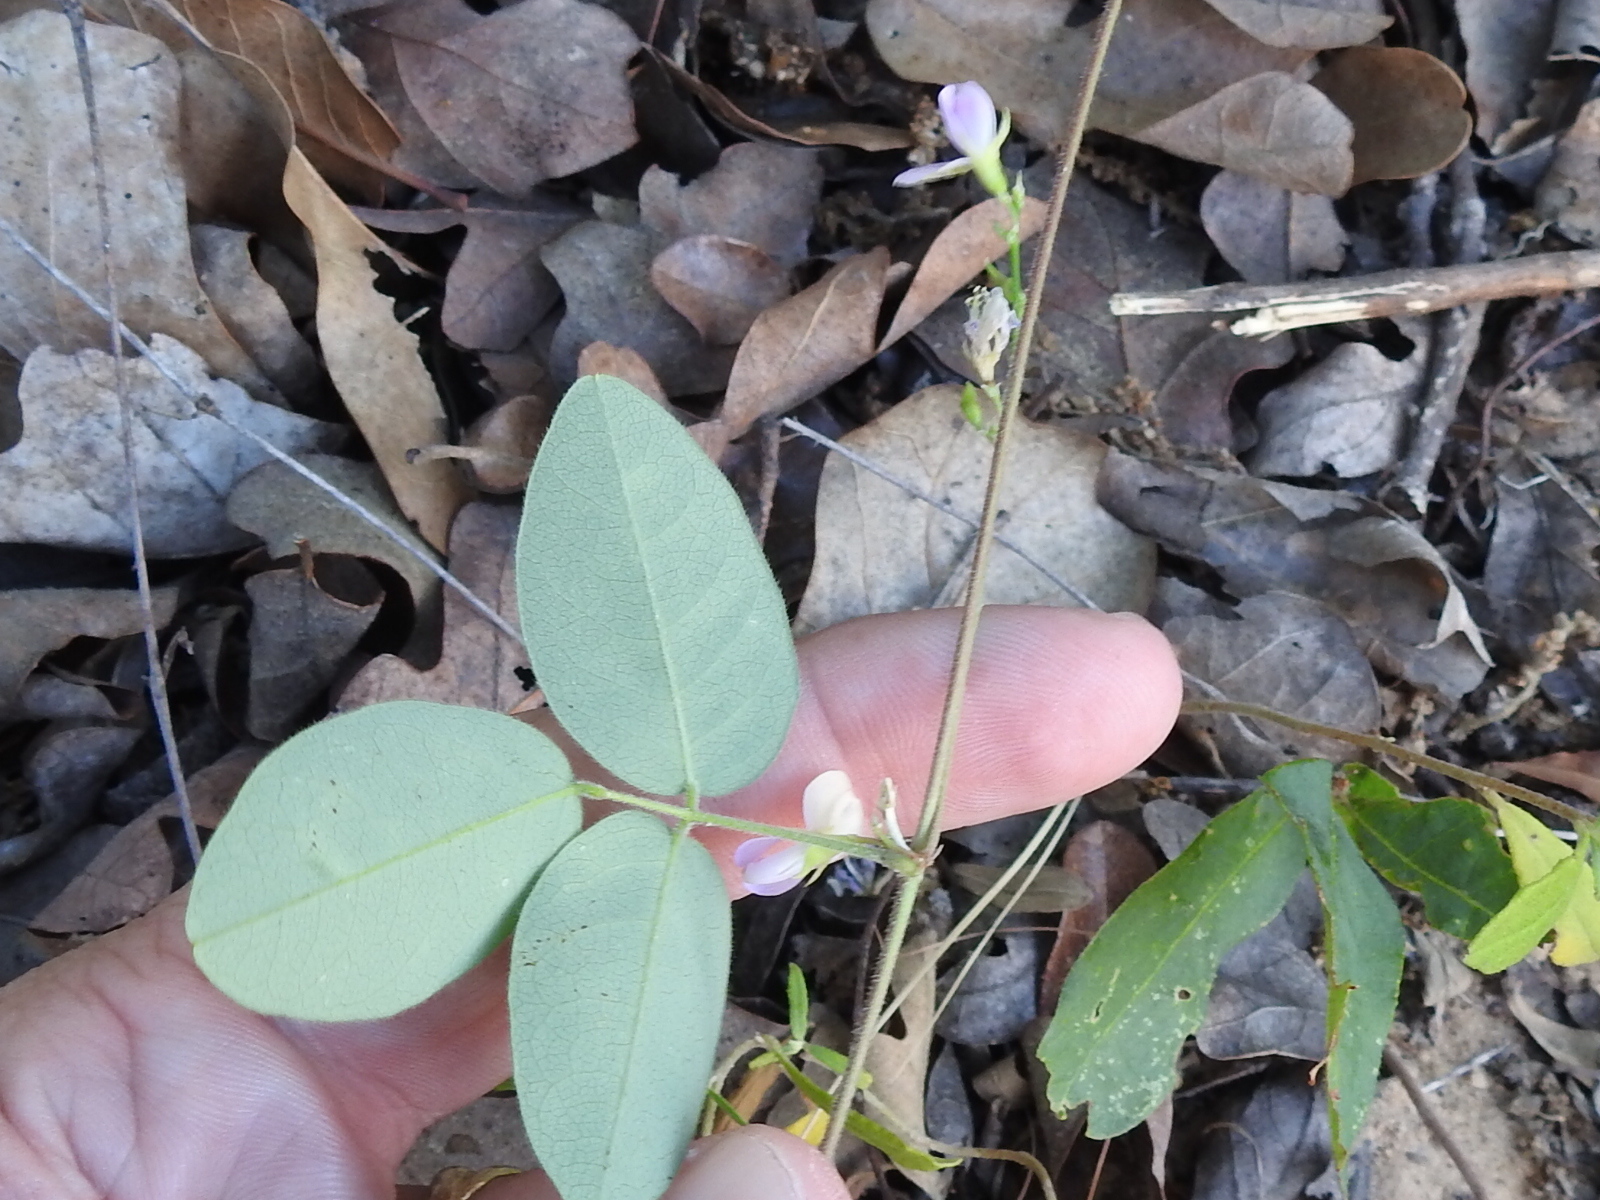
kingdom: Plantae
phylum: Tracheophyta
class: Magnoliopsida
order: Fabales
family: Fabaceae
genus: Galactia
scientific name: Galactia volubilis
